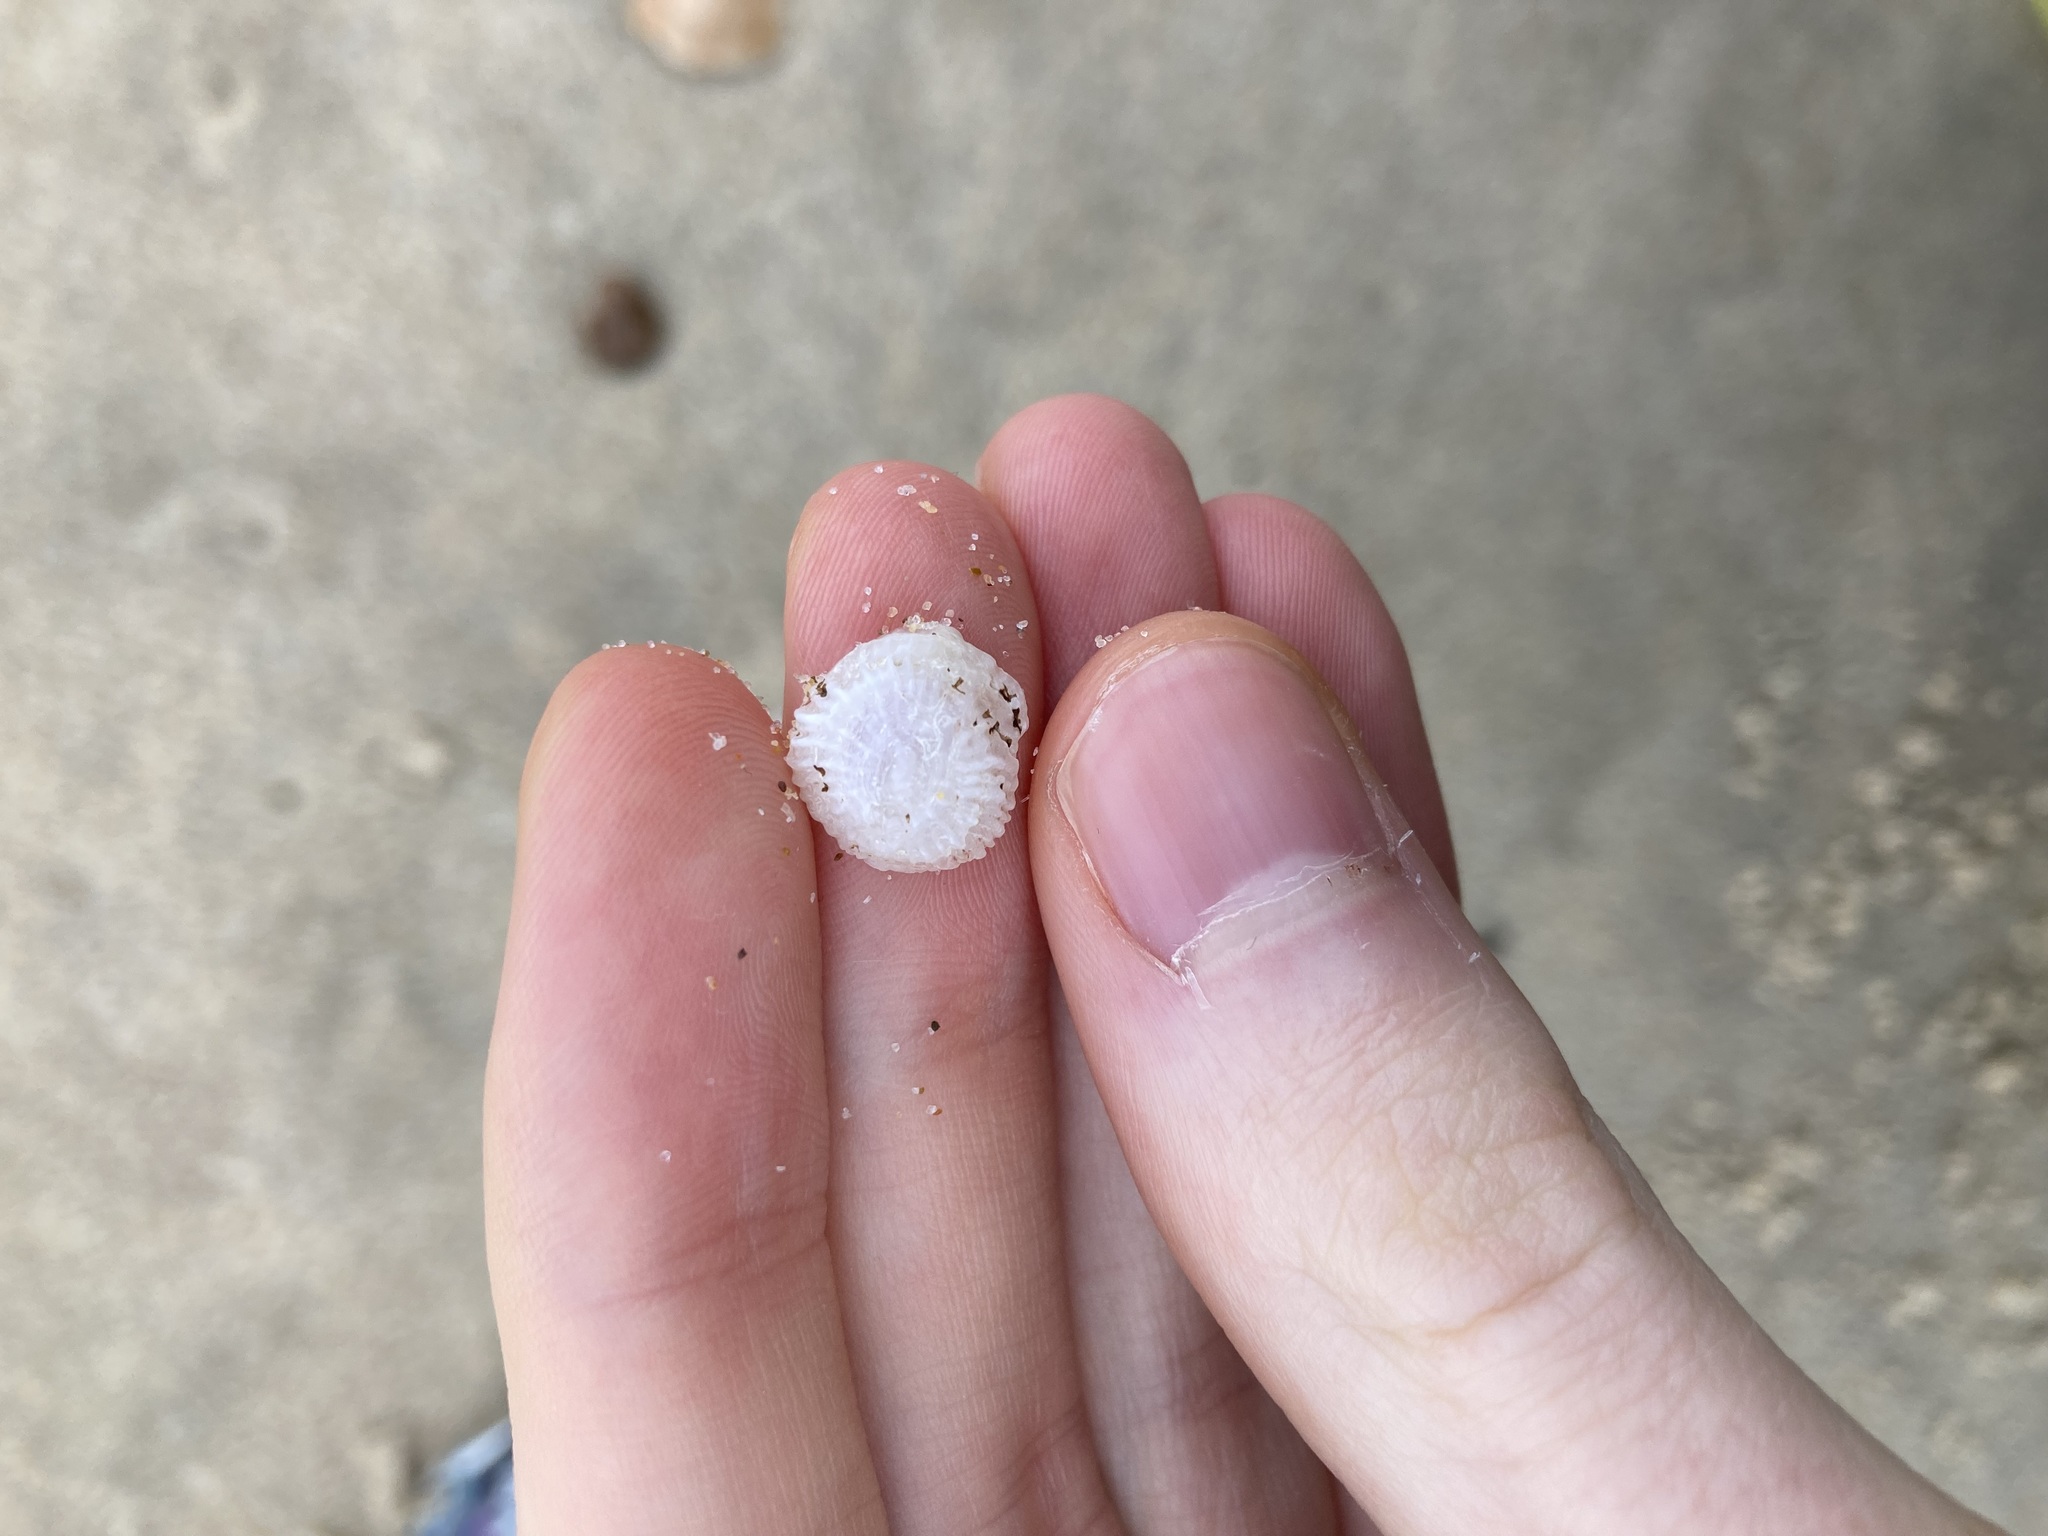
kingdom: Animalia
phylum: Mollusca
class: Gastropoda
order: Ellobiida
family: Trimusculidae
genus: Trimusculus
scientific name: Trimusculus conicus
